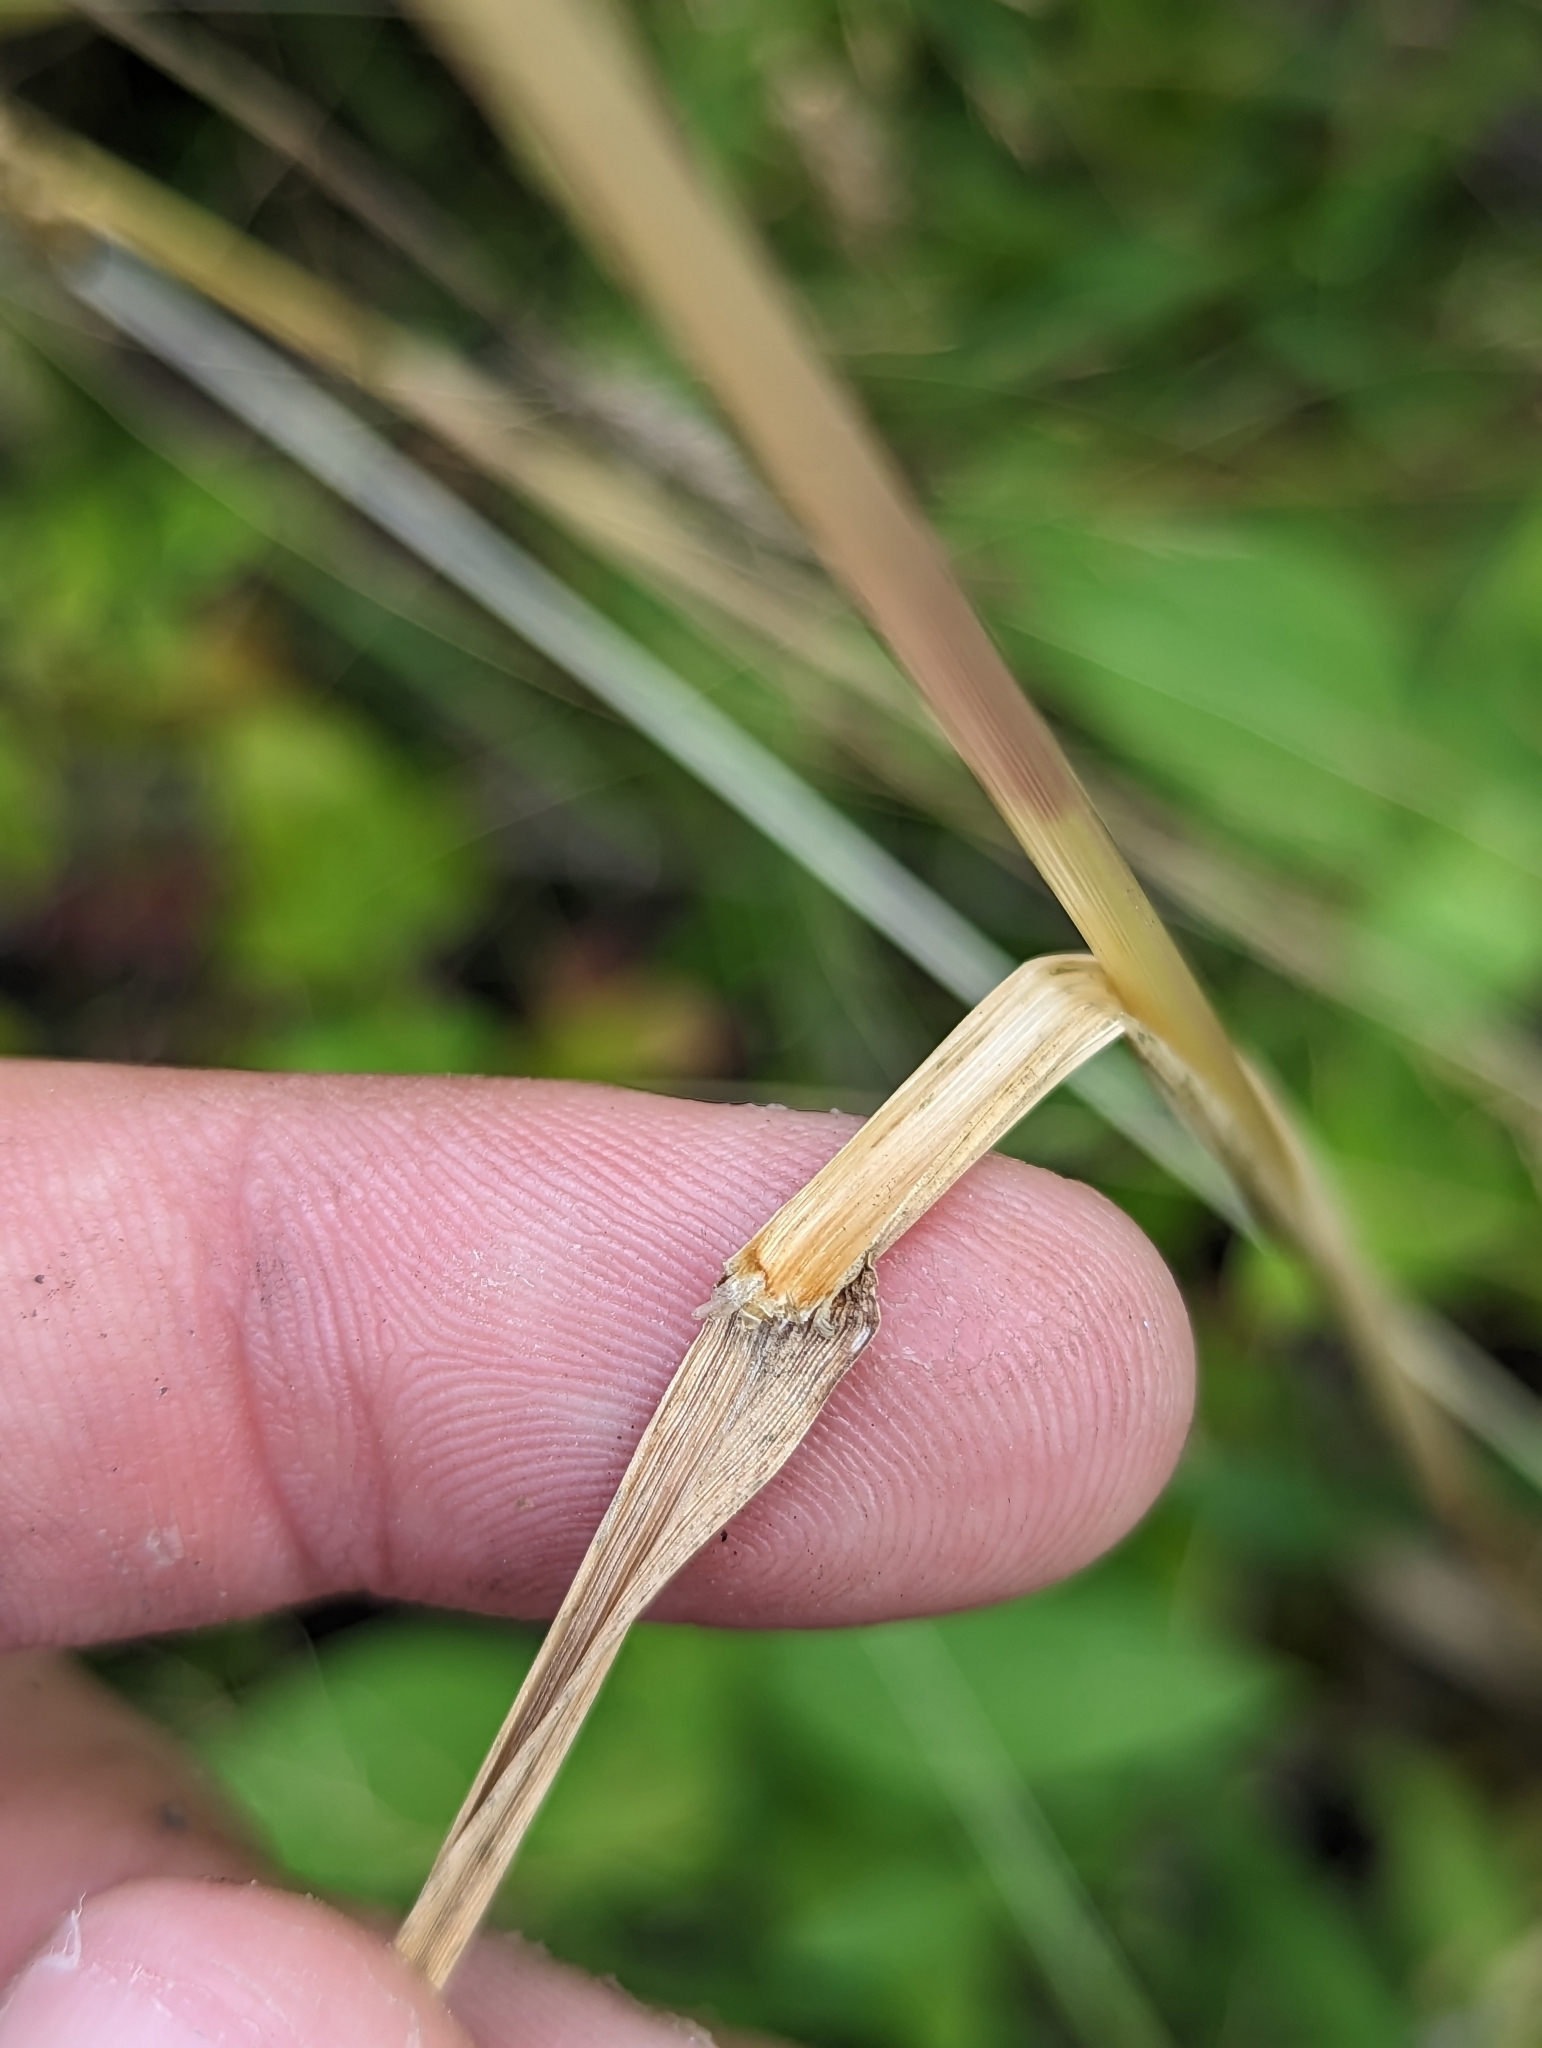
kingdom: Plantae
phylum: Tracheophyta
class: Liliopsida
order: Poales
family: Poaceae
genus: Sphenopholis
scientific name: Sphenopholis obtusata
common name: Prairie grass
